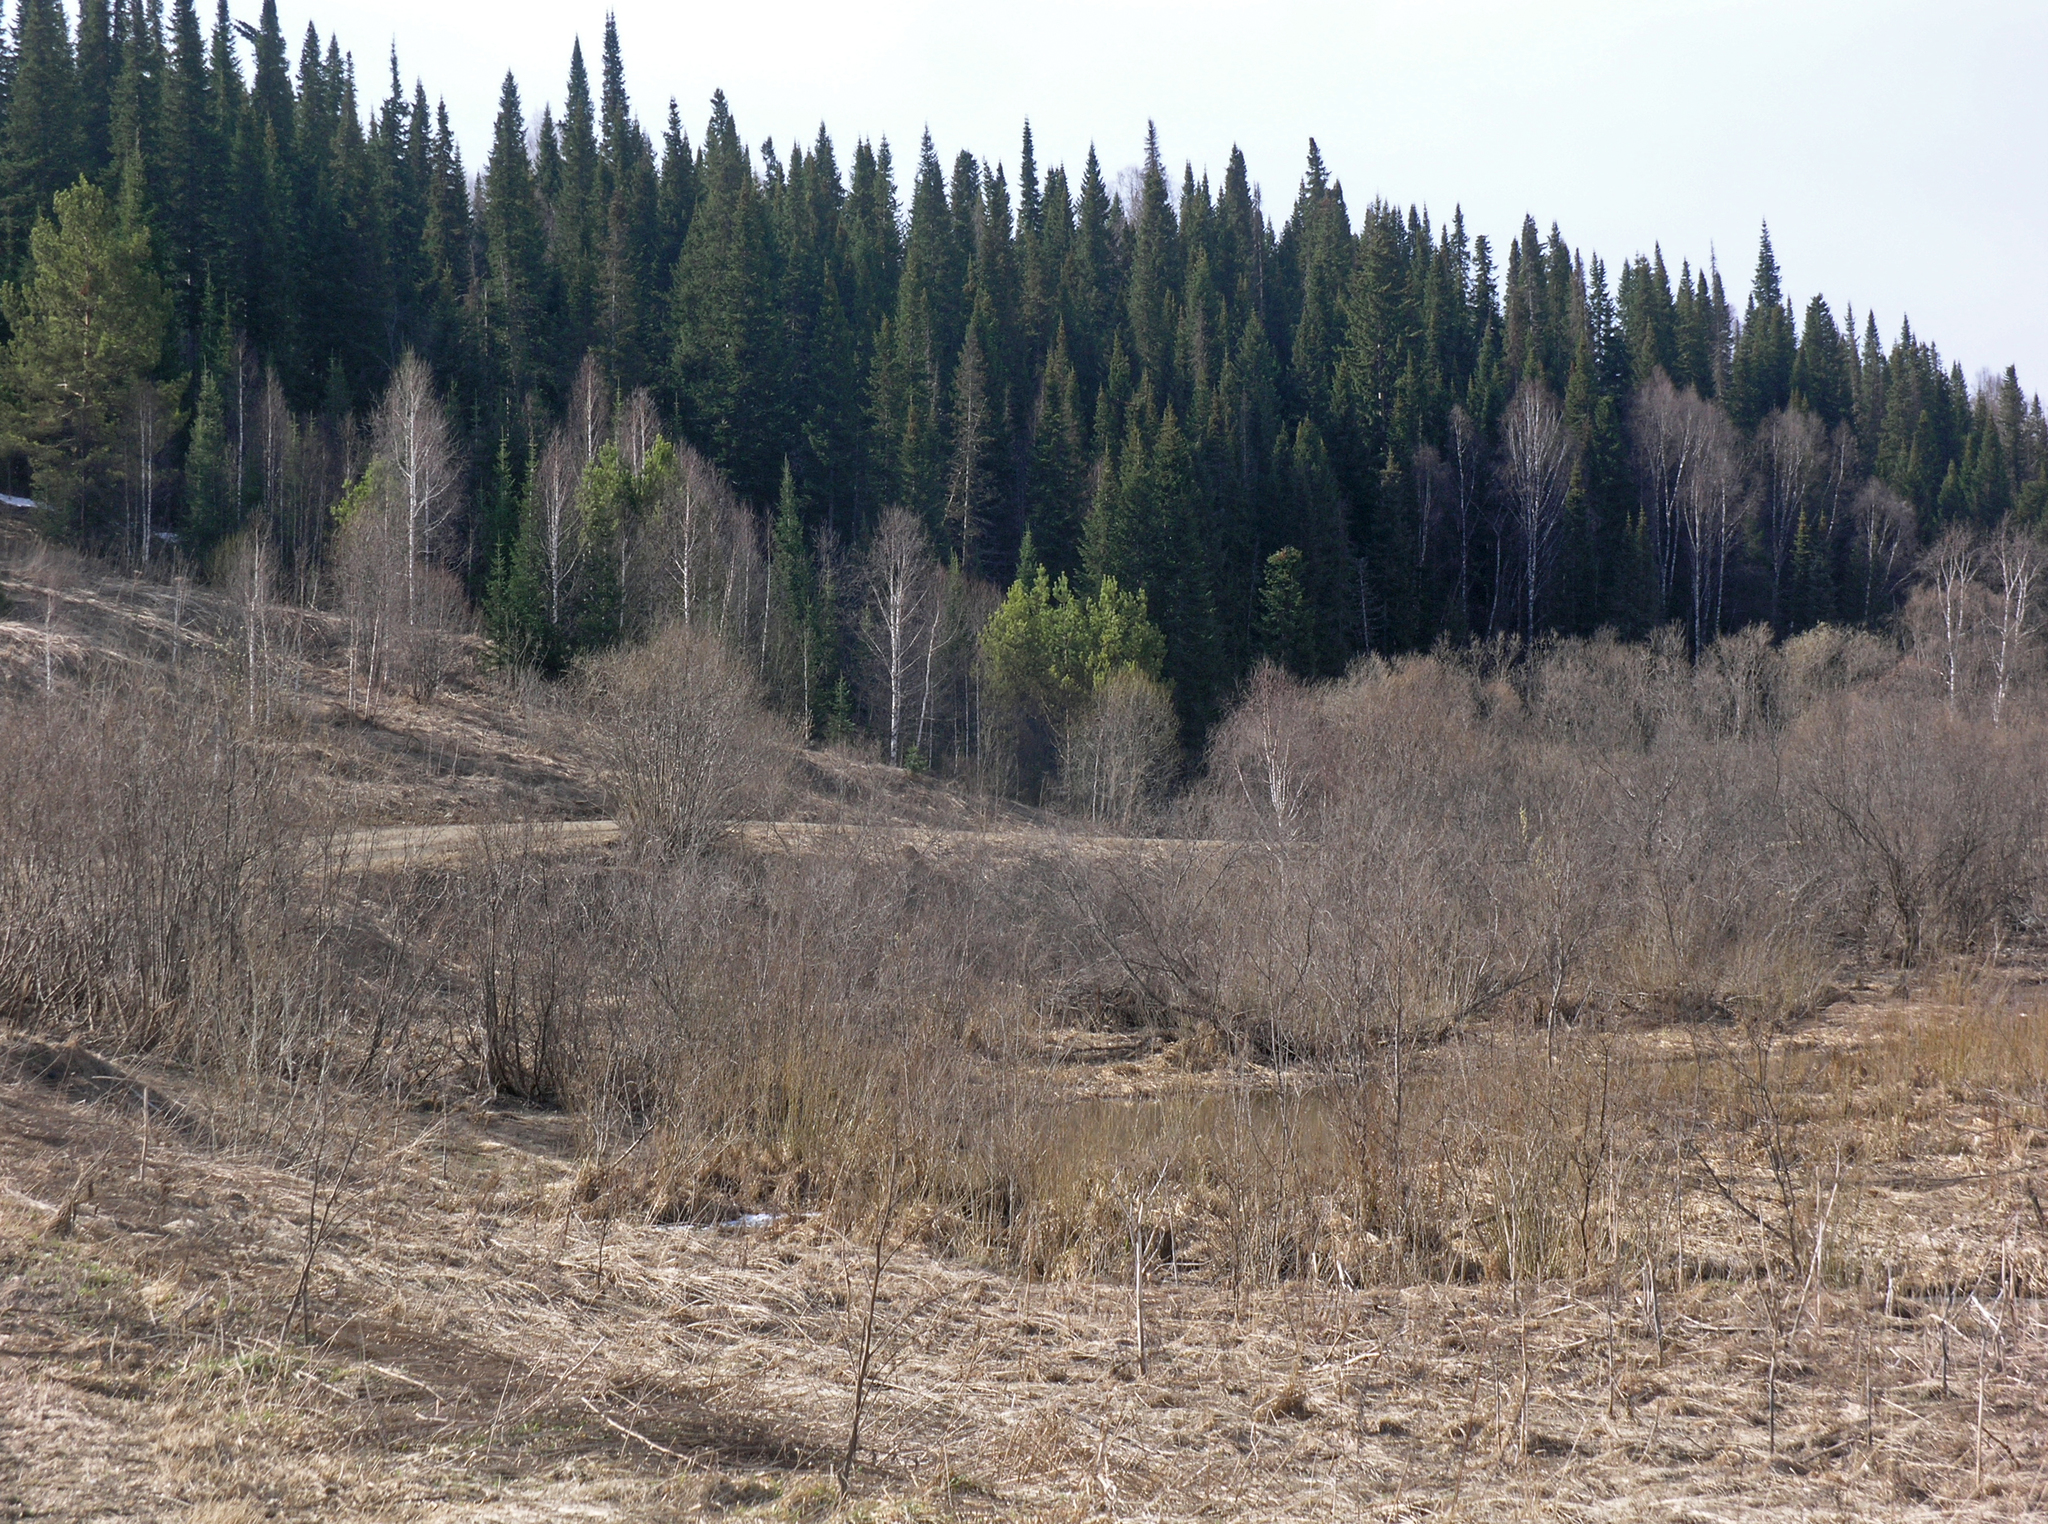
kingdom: Plantae
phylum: Tracheophyta
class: Pinopsida
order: Pinales
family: Pinaceae
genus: Abies
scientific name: Abies sibirica
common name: Siberian fir
